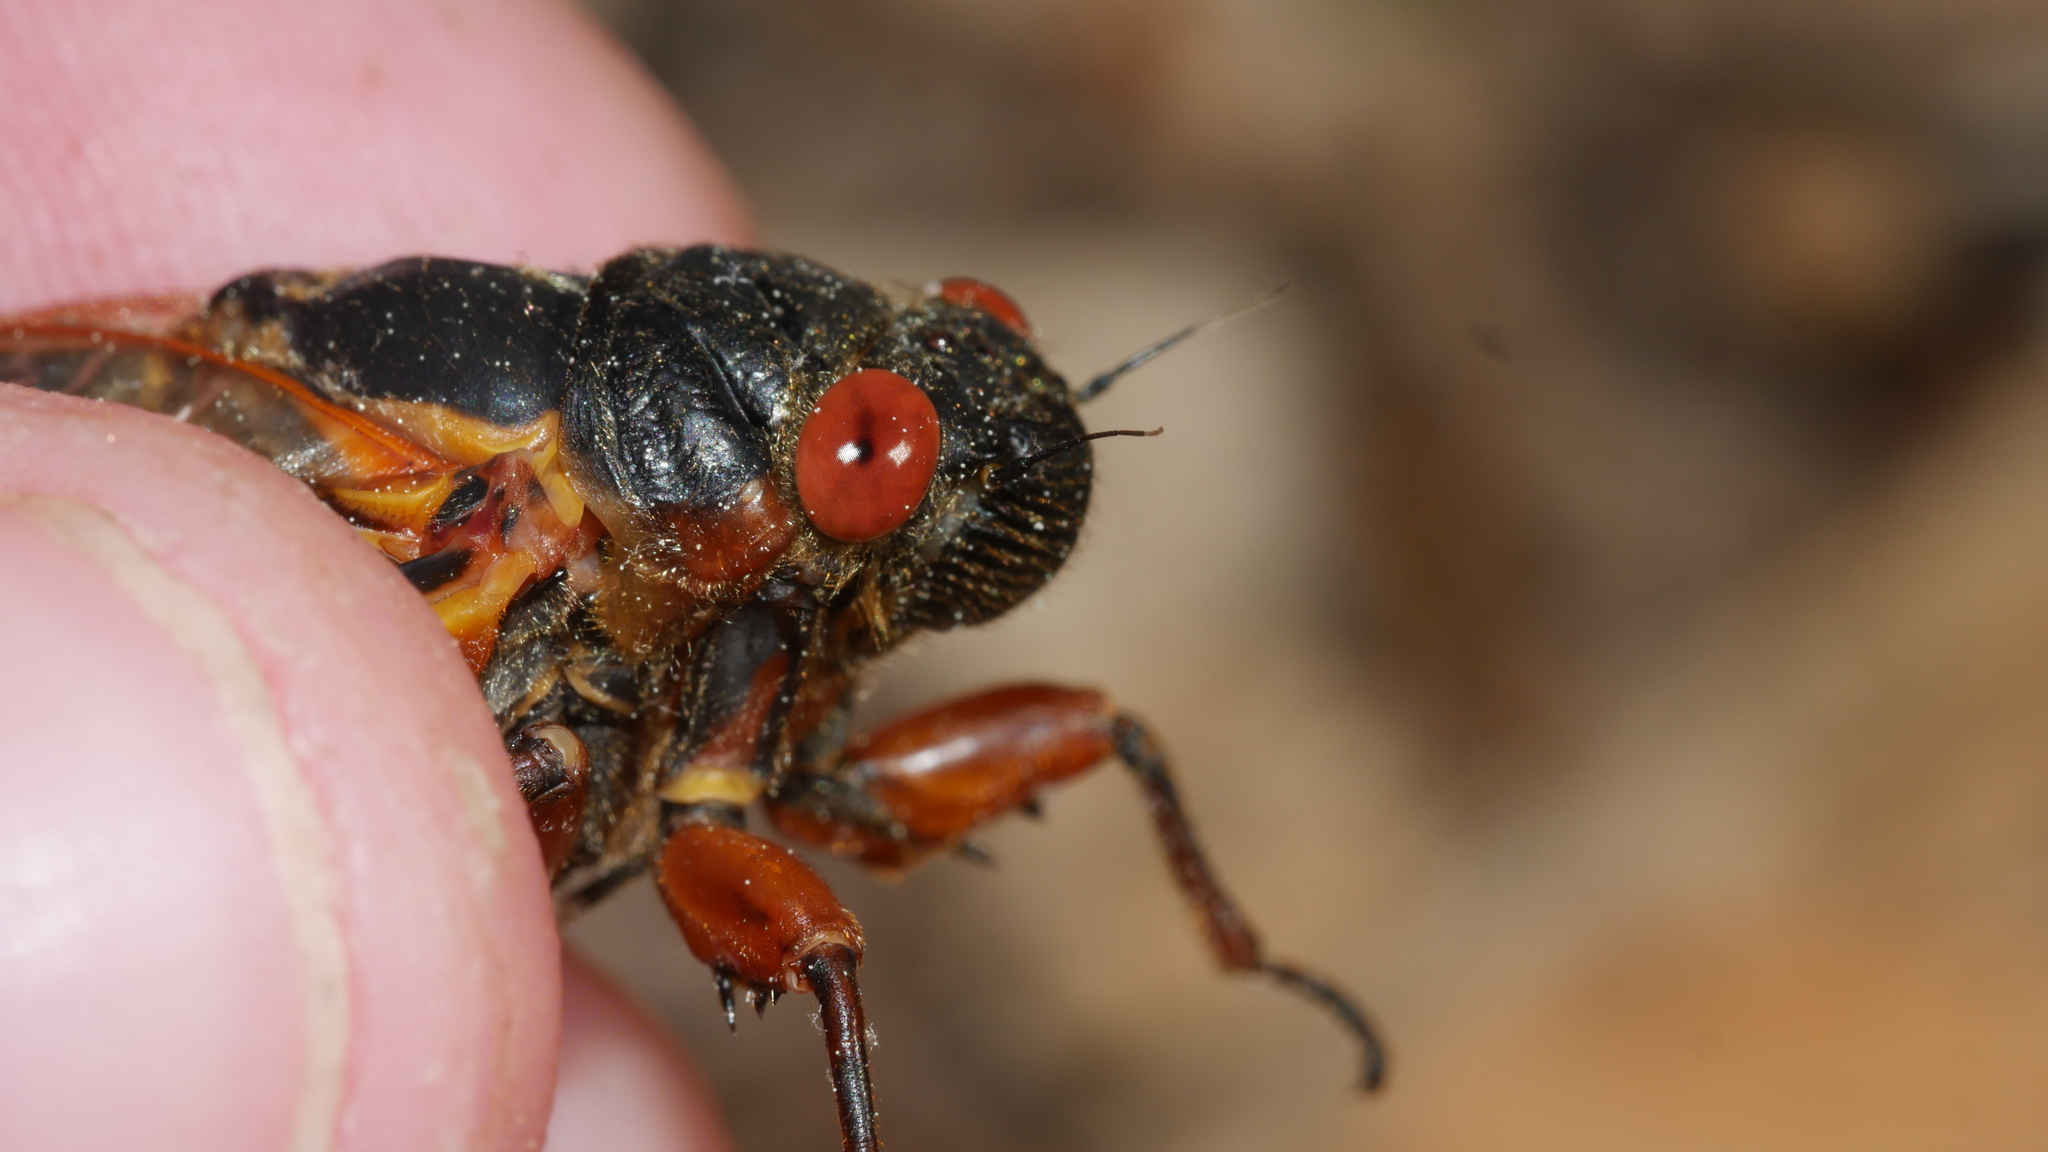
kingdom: Animalia
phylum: Arthropoda
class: Insecta
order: Hemiptera
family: Cicadidae
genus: Magicicada
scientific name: Magicicada septendecim
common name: Periodical cicada
